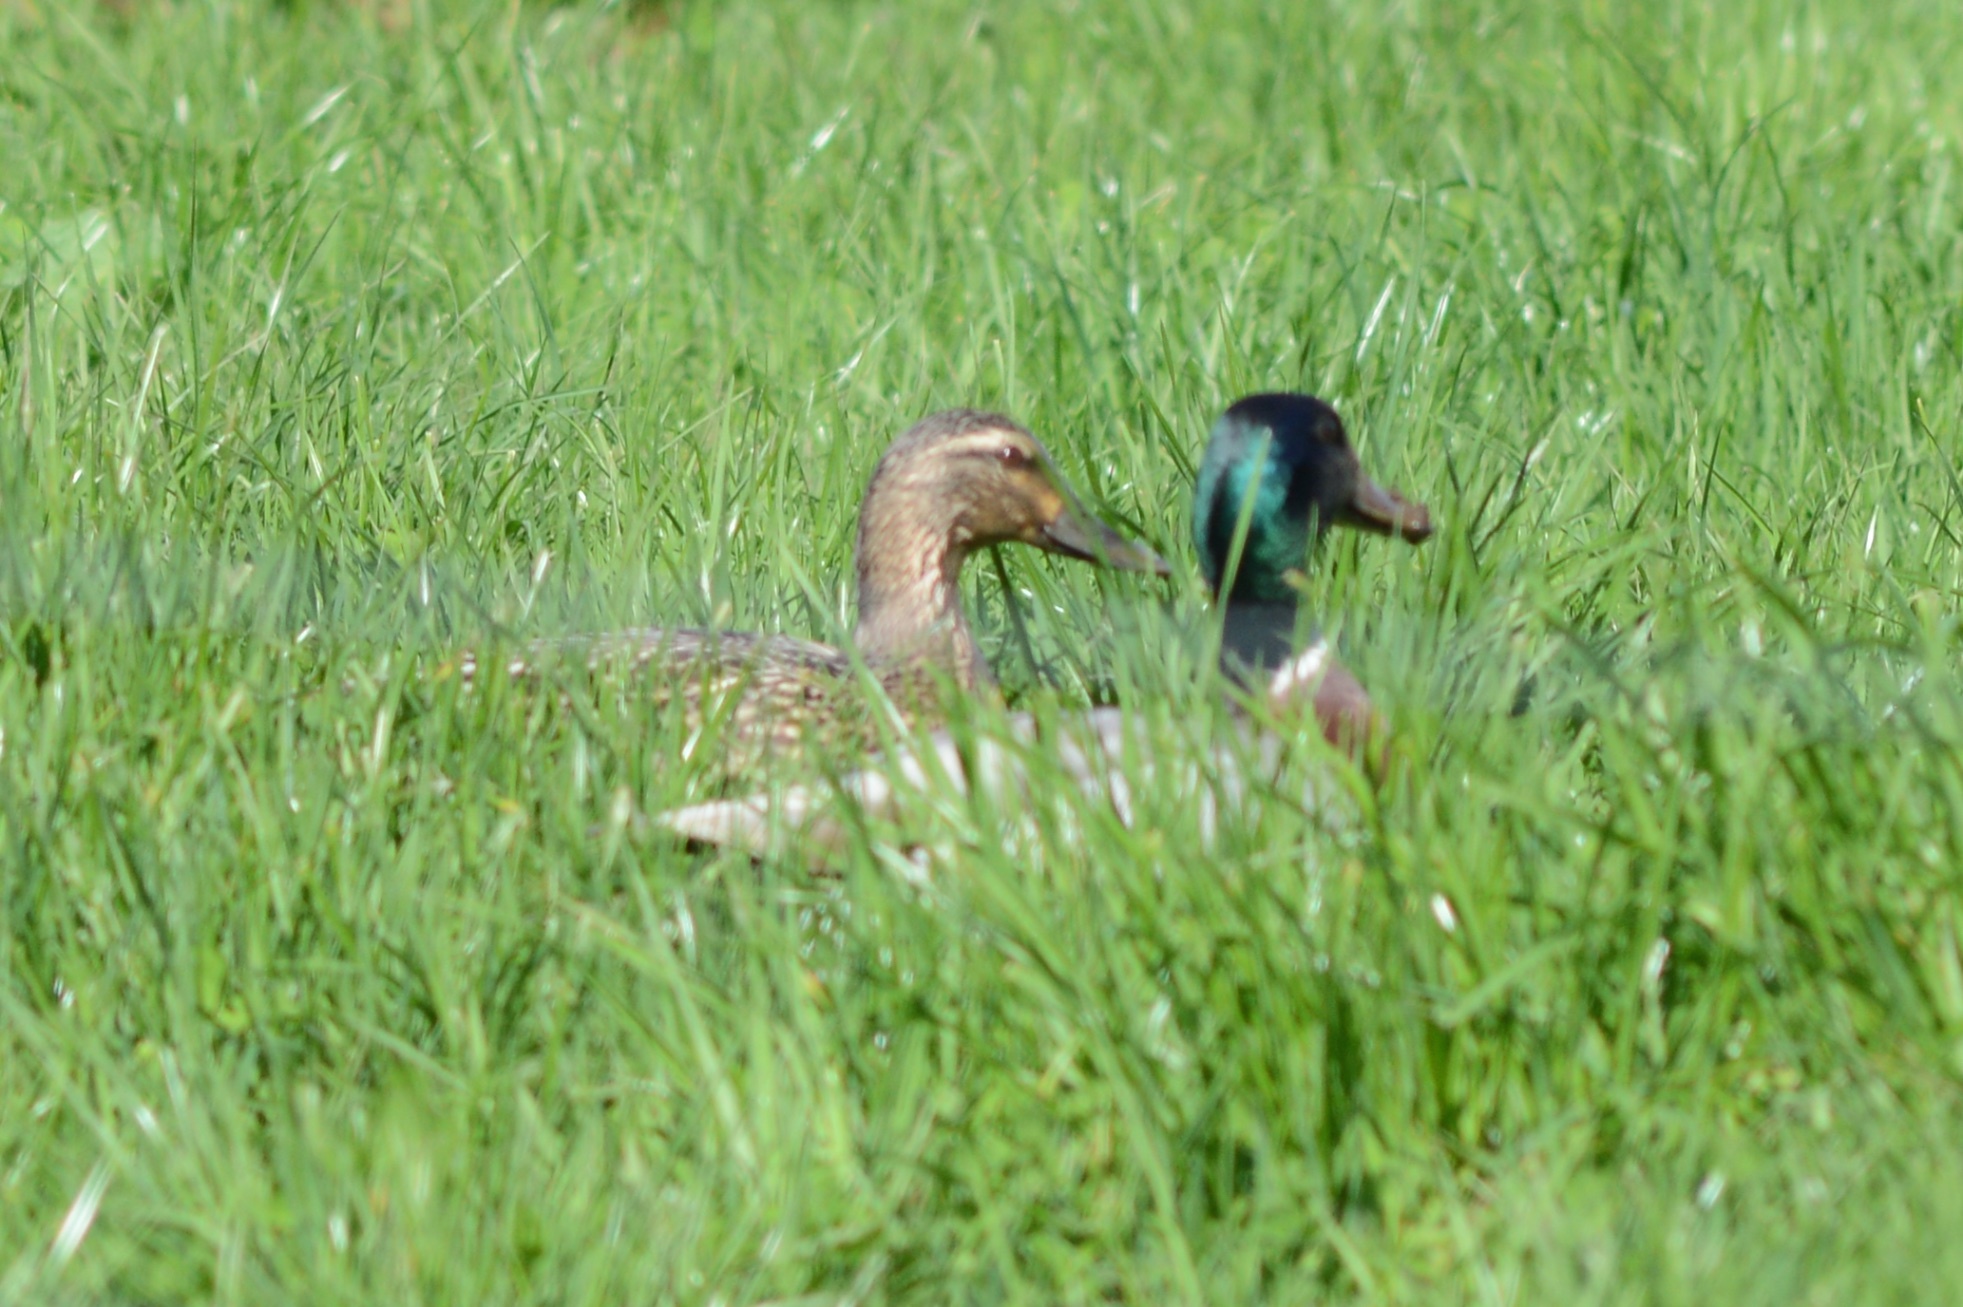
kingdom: Animalia
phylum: Chordata
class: Aves
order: Anseriformes
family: Anatidae
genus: Anas
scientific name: Anas platyrhynchos
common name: Mallard
